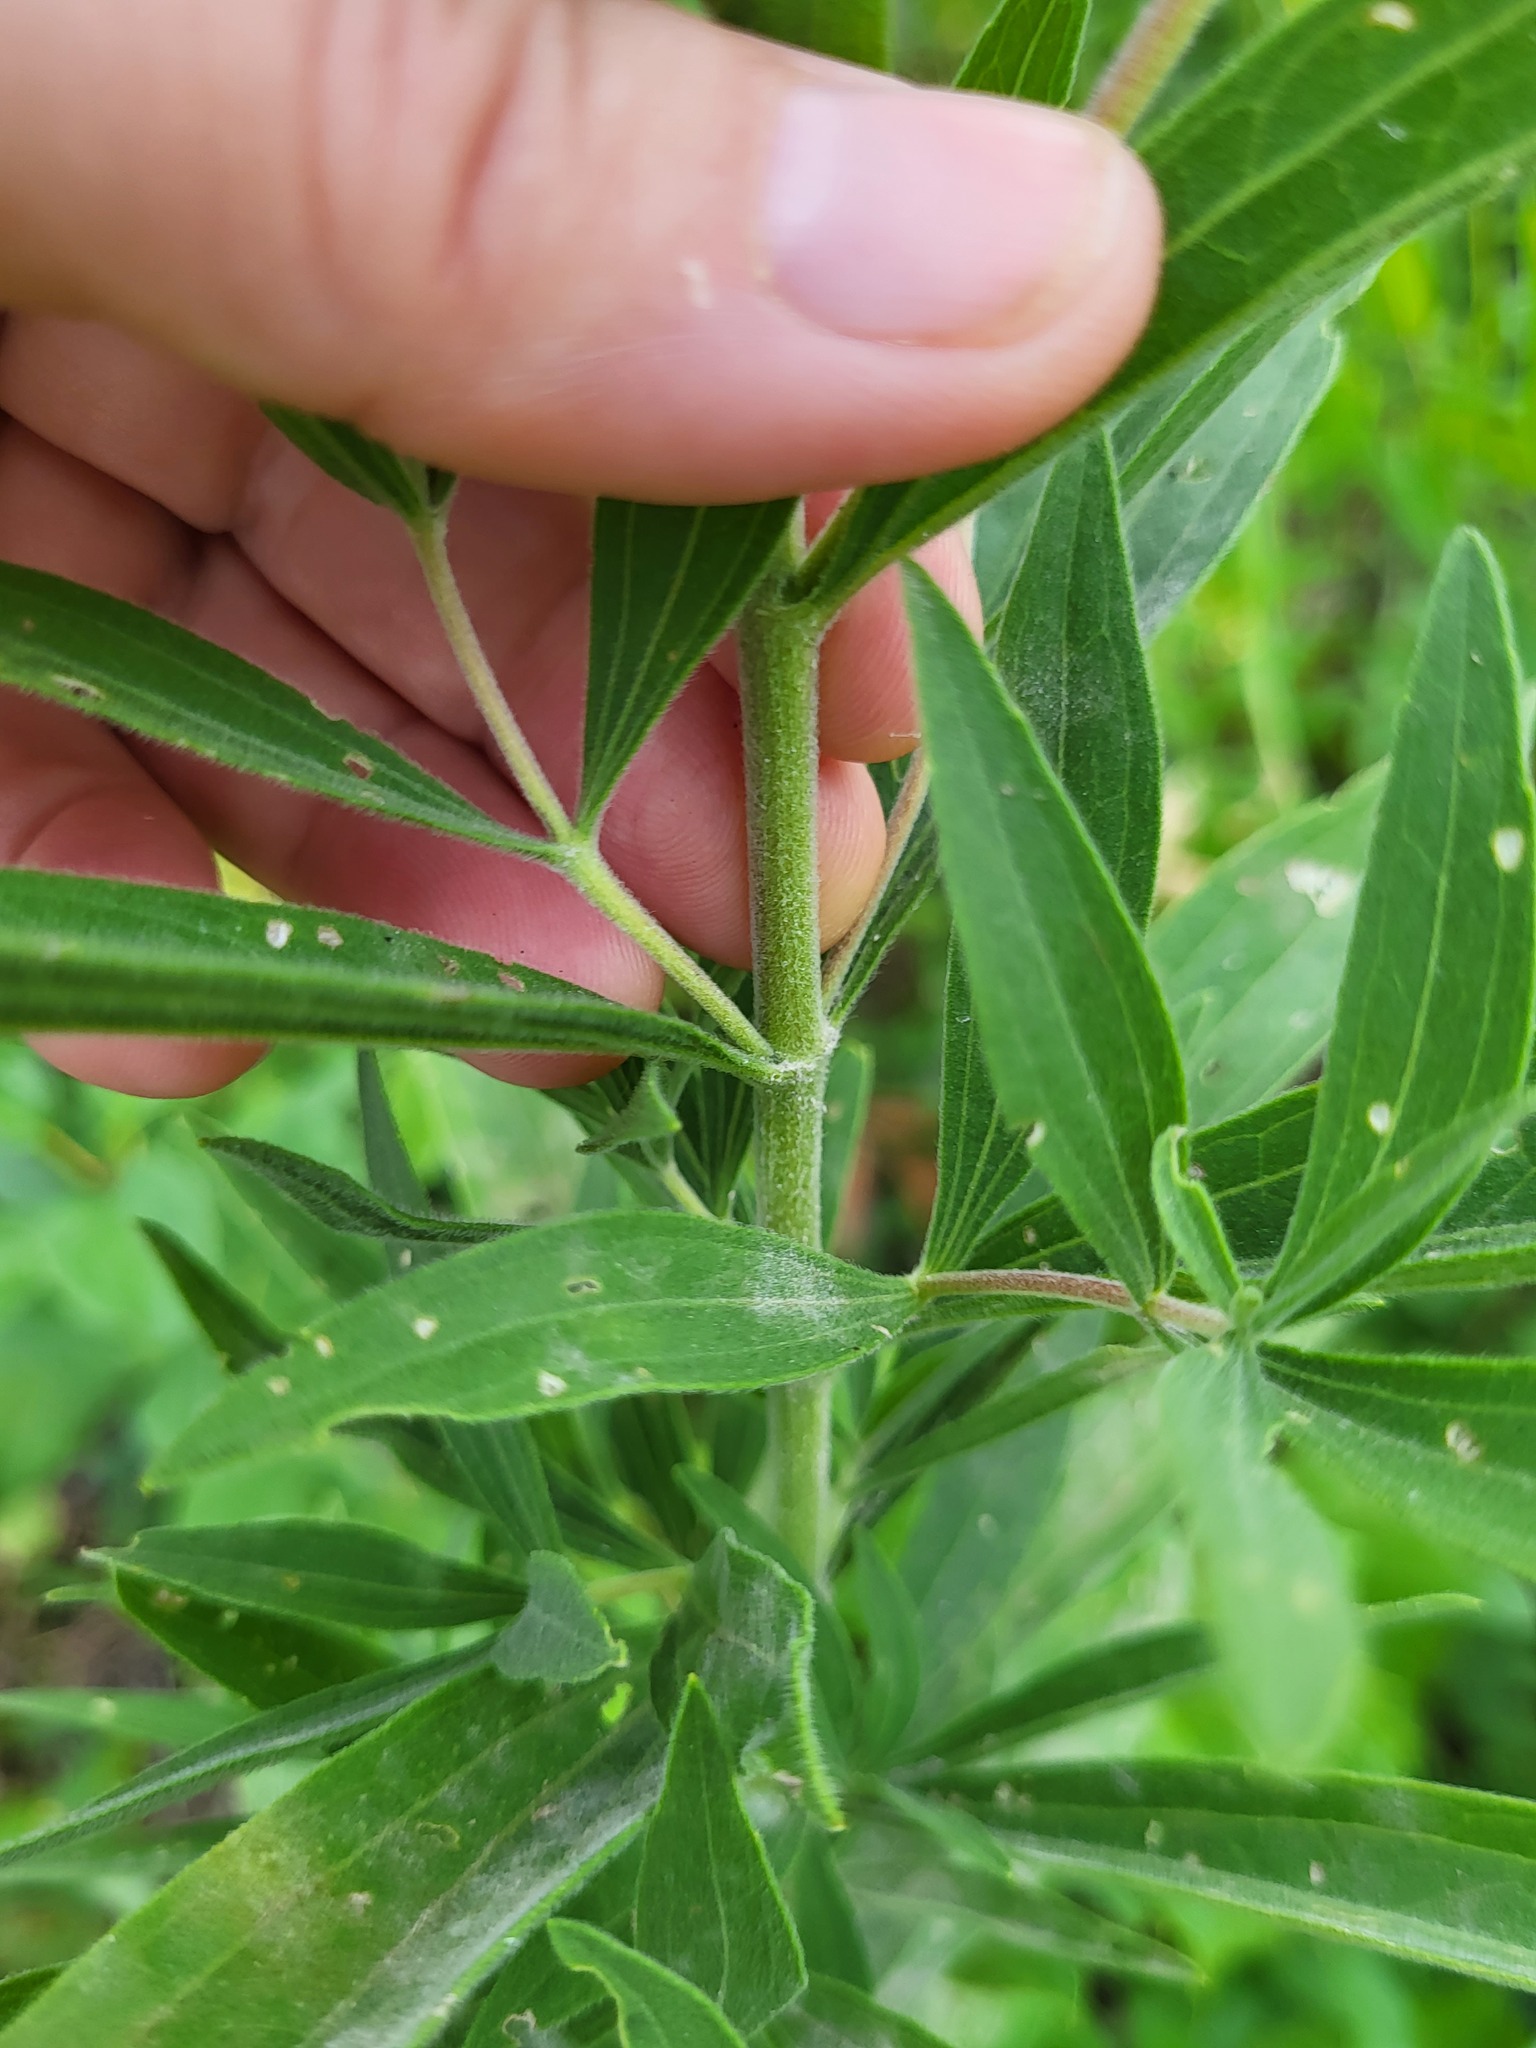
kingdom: Plantae
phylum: Tracheophyta
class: Magnoliopsida
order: Asterales
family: Asteraceae
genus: Eupatorium
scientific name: Eupatorium altissimum
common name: Tall thoroughwort
